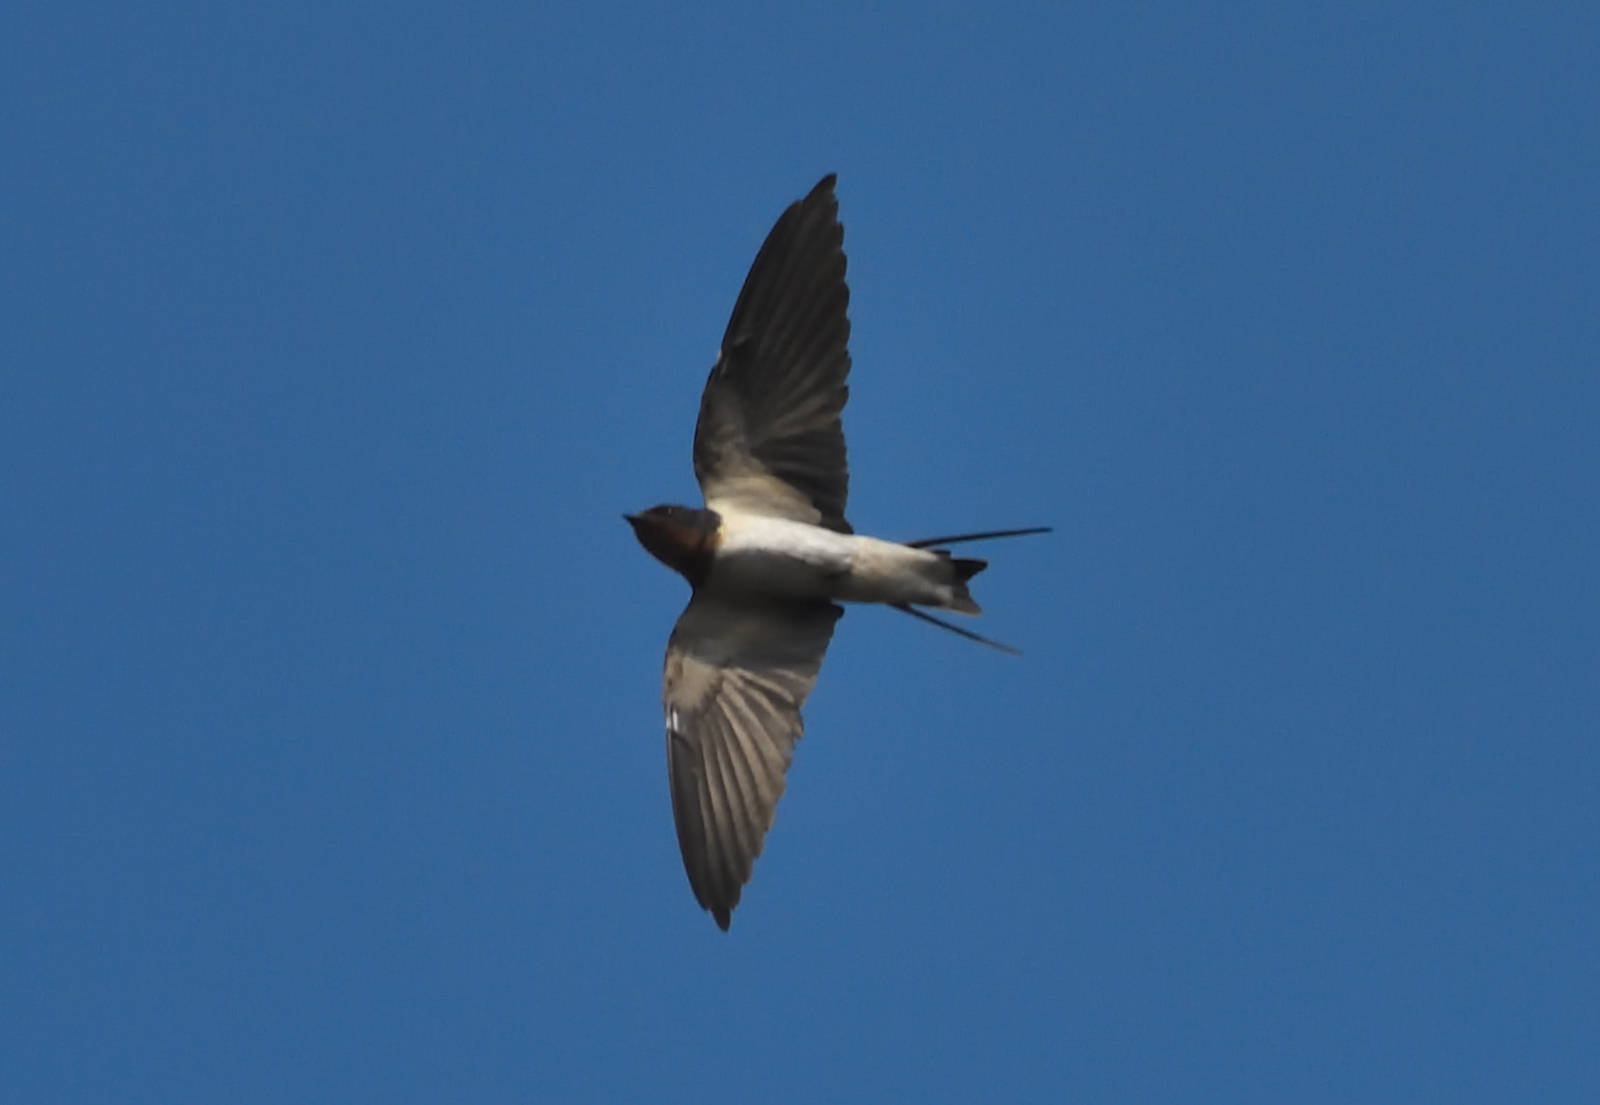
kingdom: Animalia
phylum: Chordata
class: Aves
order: Passeriformes
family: Hirundinidae
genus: Hirundo
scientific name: Hirundo rustica
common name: Barn swallow
